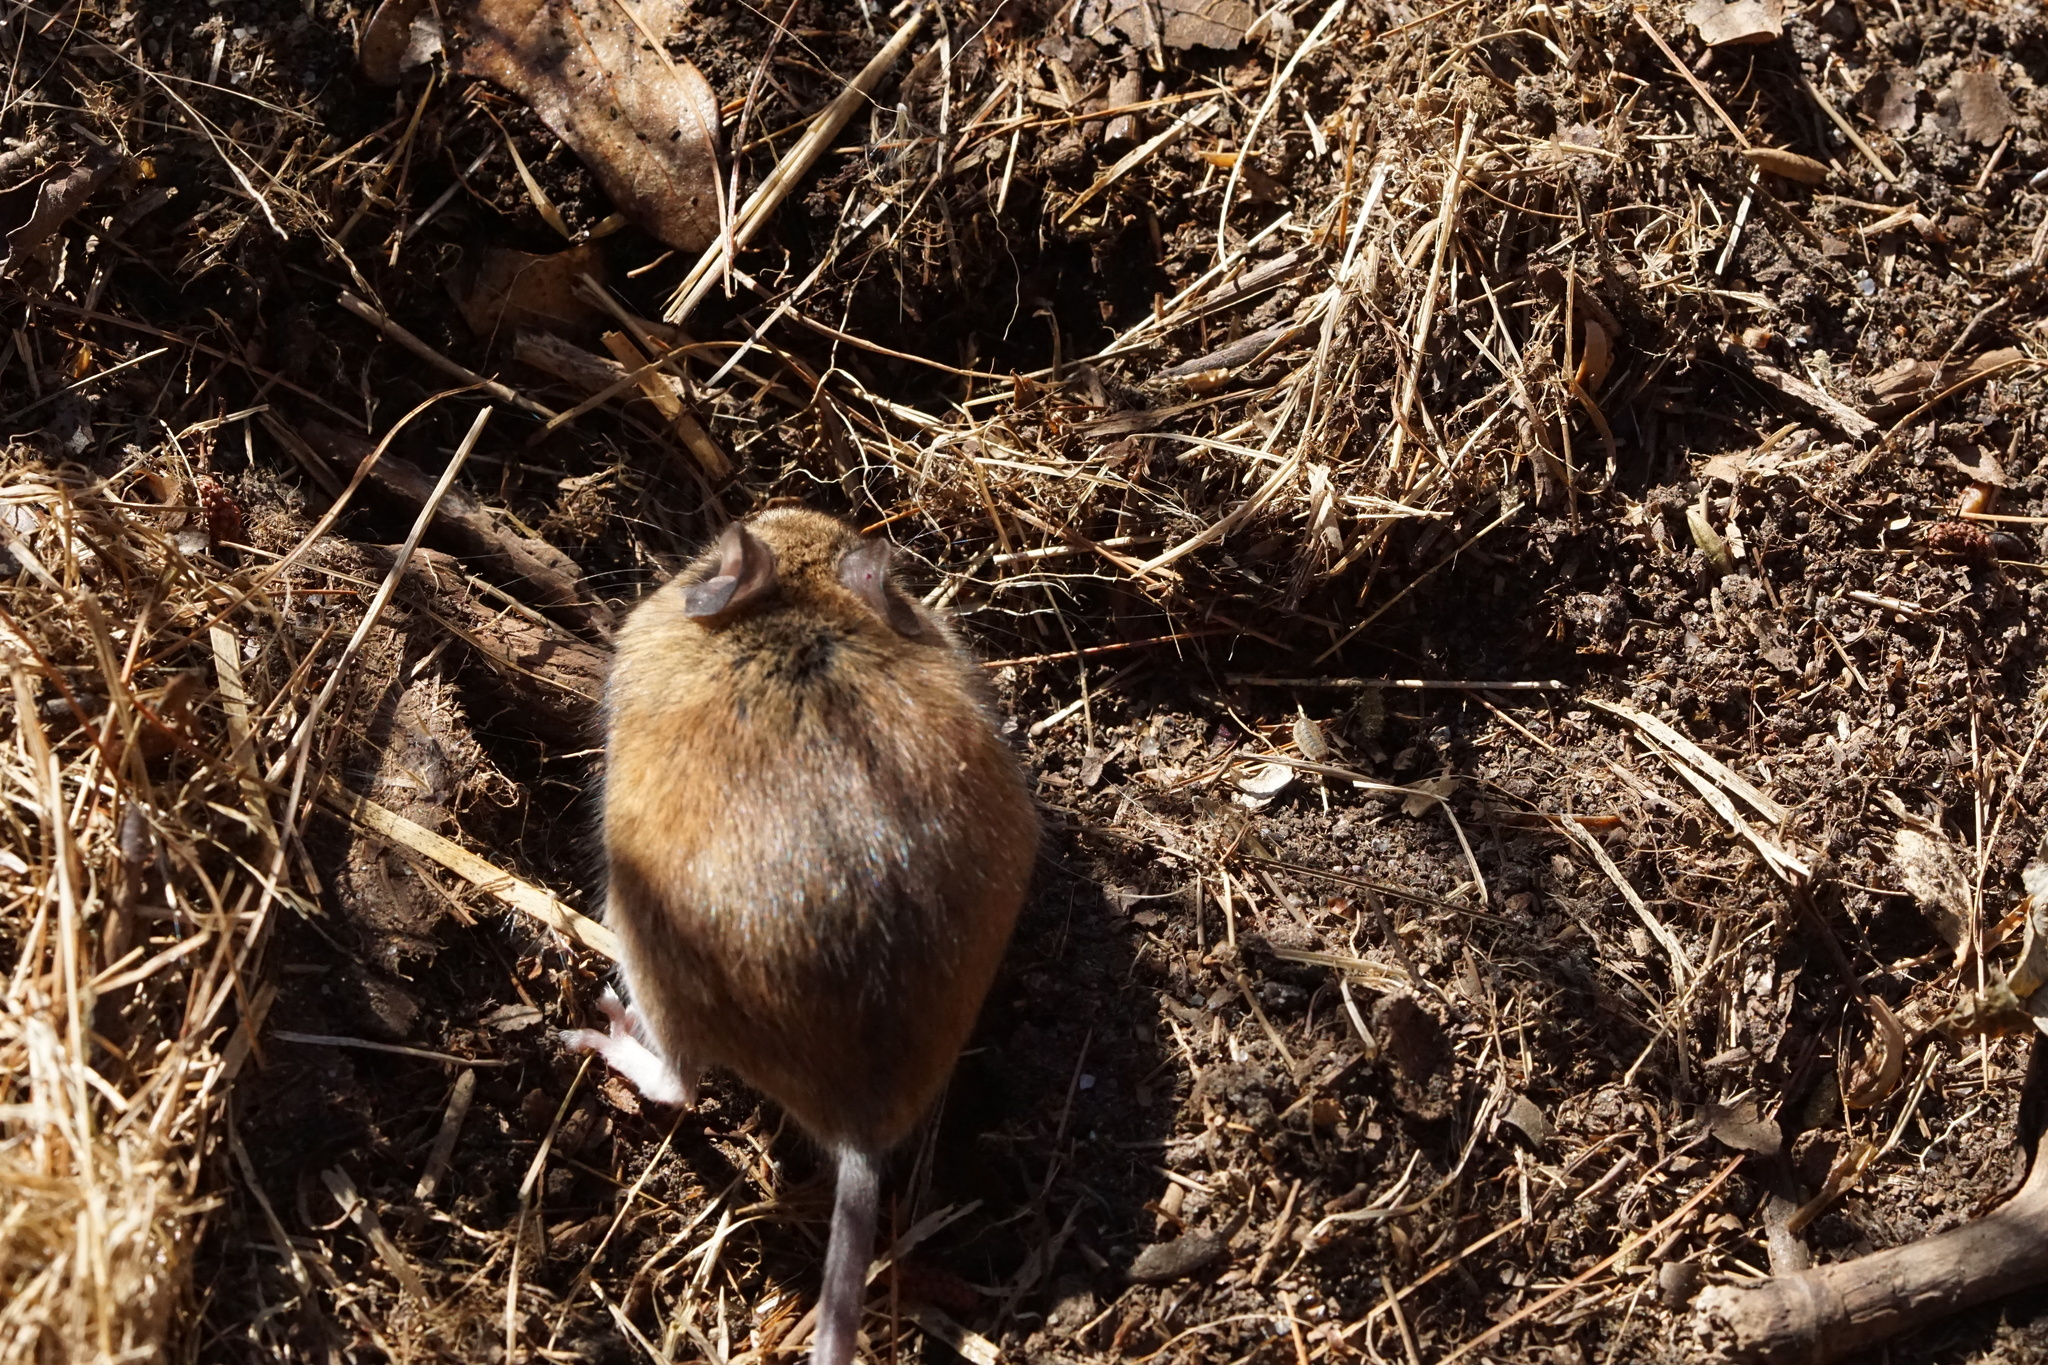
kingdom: Animalia
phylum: Chordata
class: Mammalia
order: Rodentia
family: Cricetidae
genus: Peromyscus
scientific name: Peromyscus leucopus
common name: White-footed deermouse
